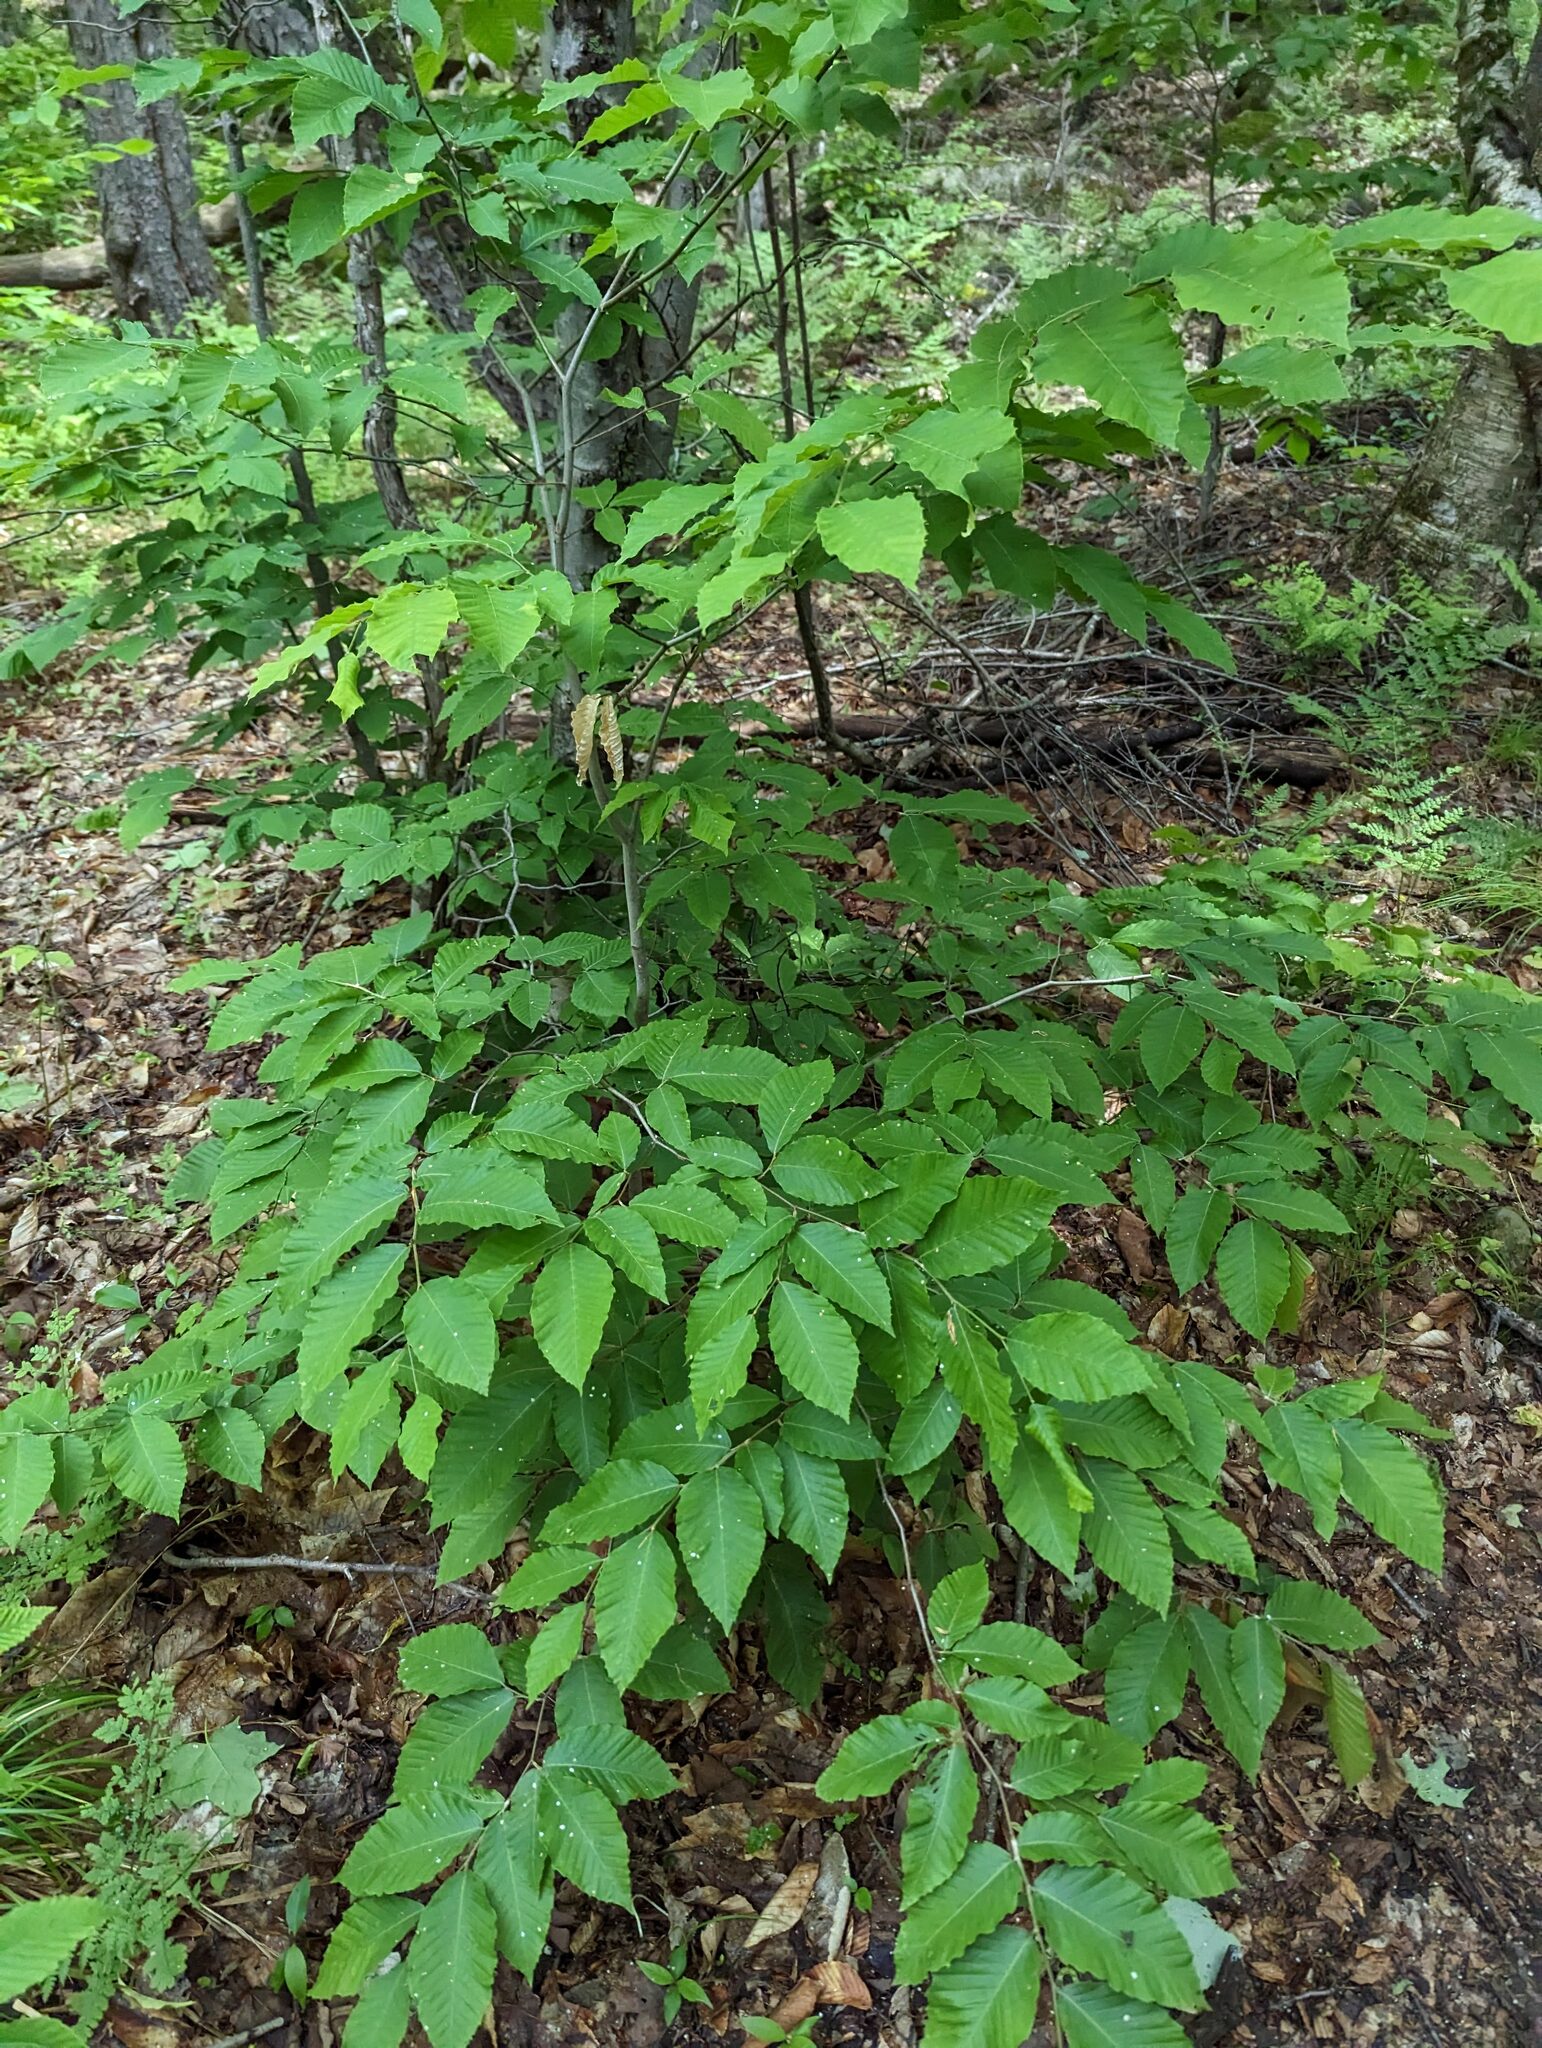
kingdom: Plantae
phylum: Tracheophyta
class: Magnoliopsida
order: Fagales
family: Fagaceae
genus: Fagus
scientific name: Fagus grandifolia
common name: American beech
